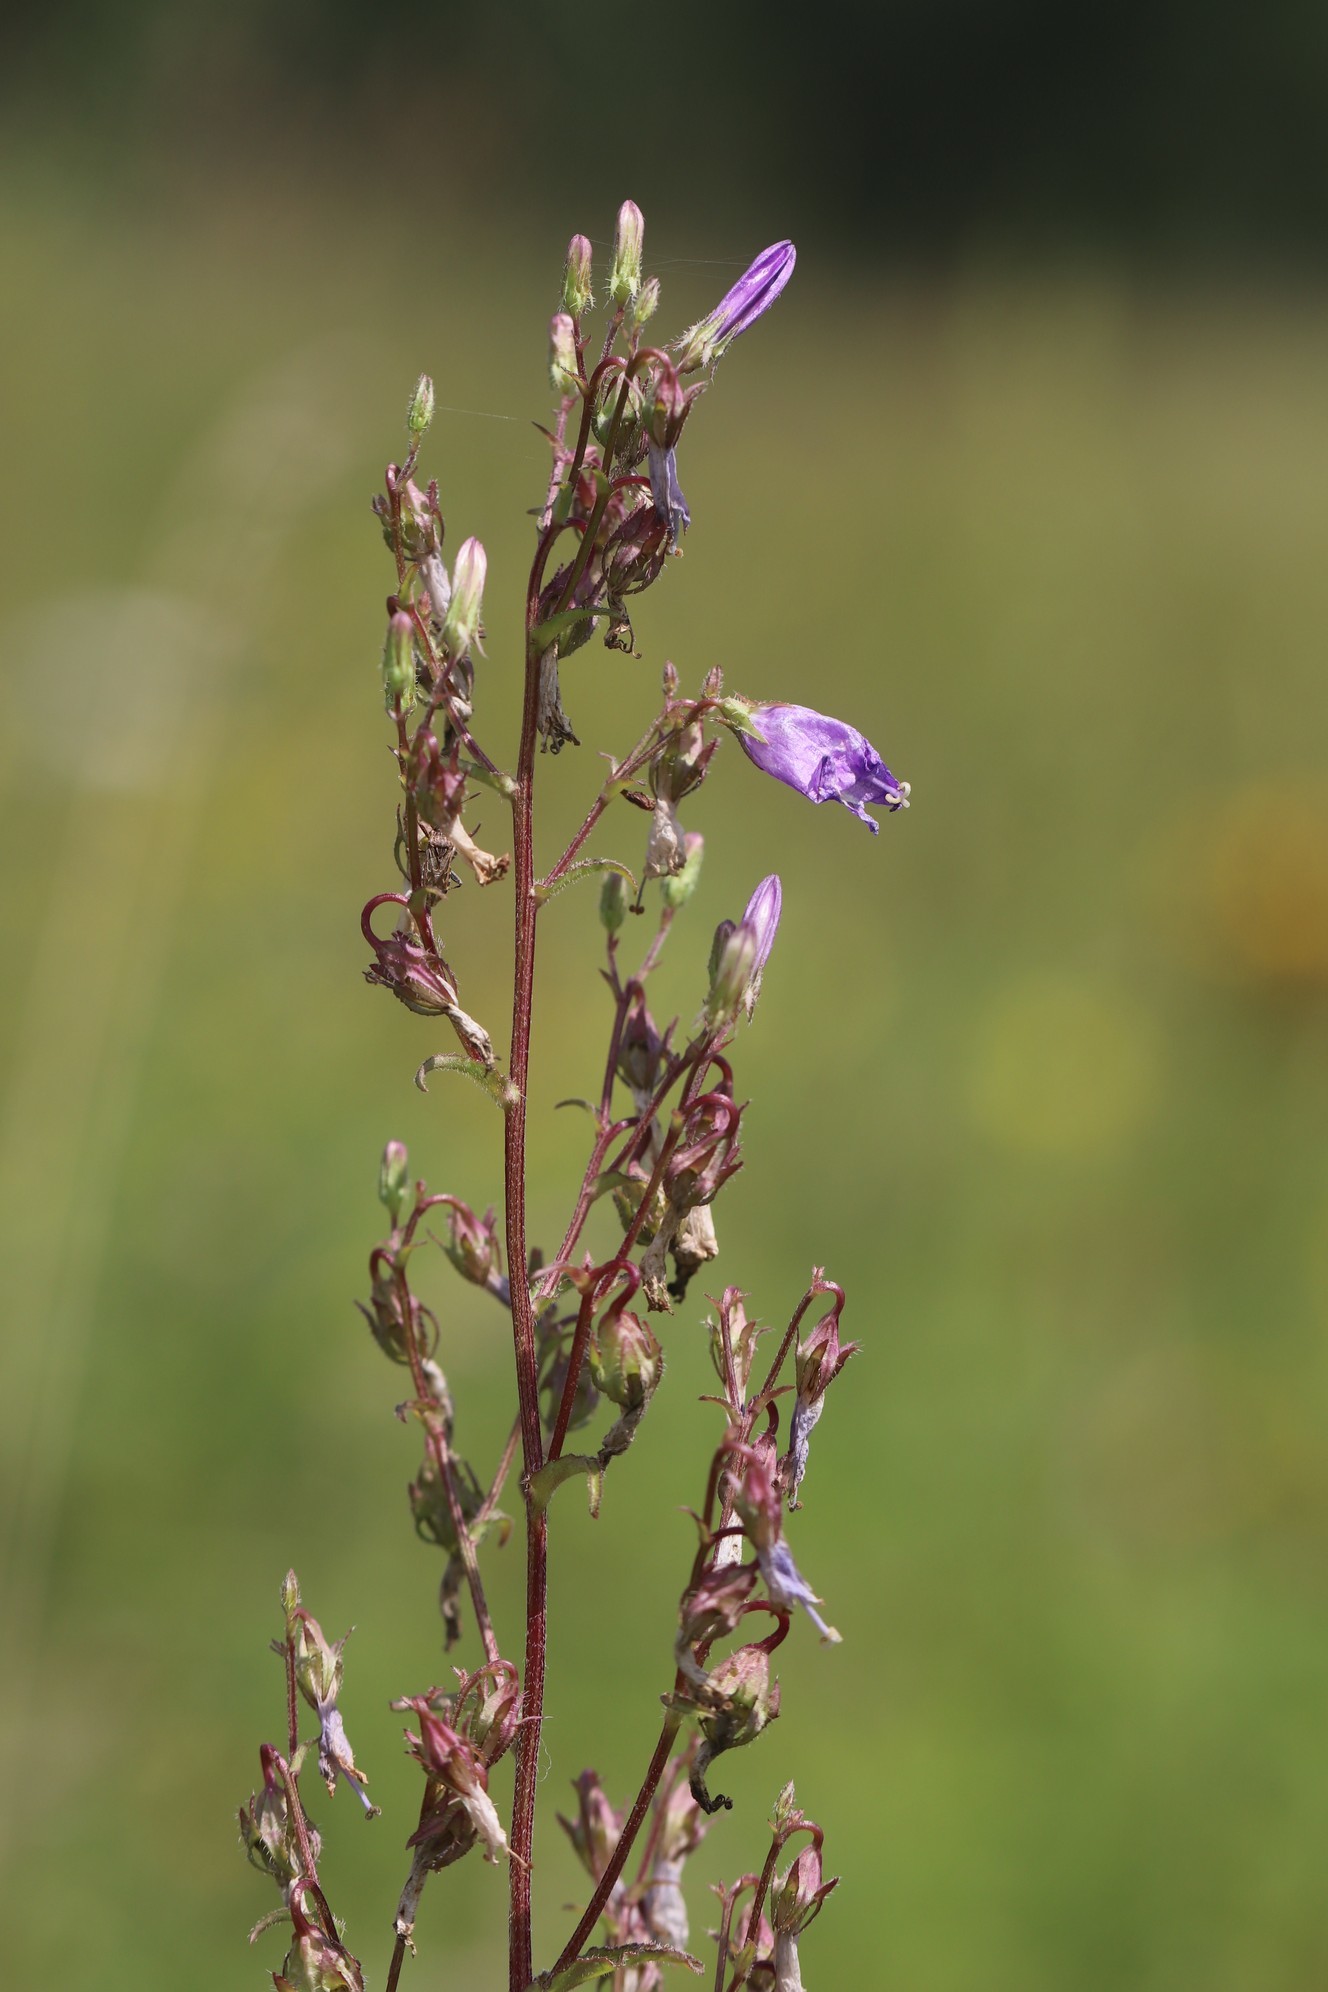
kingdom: Plantae
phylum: Tracheophyta
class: Magnoliopsida
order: Asterales
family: Campanulaceae
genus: Campanula
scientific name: Campanula sibirica
